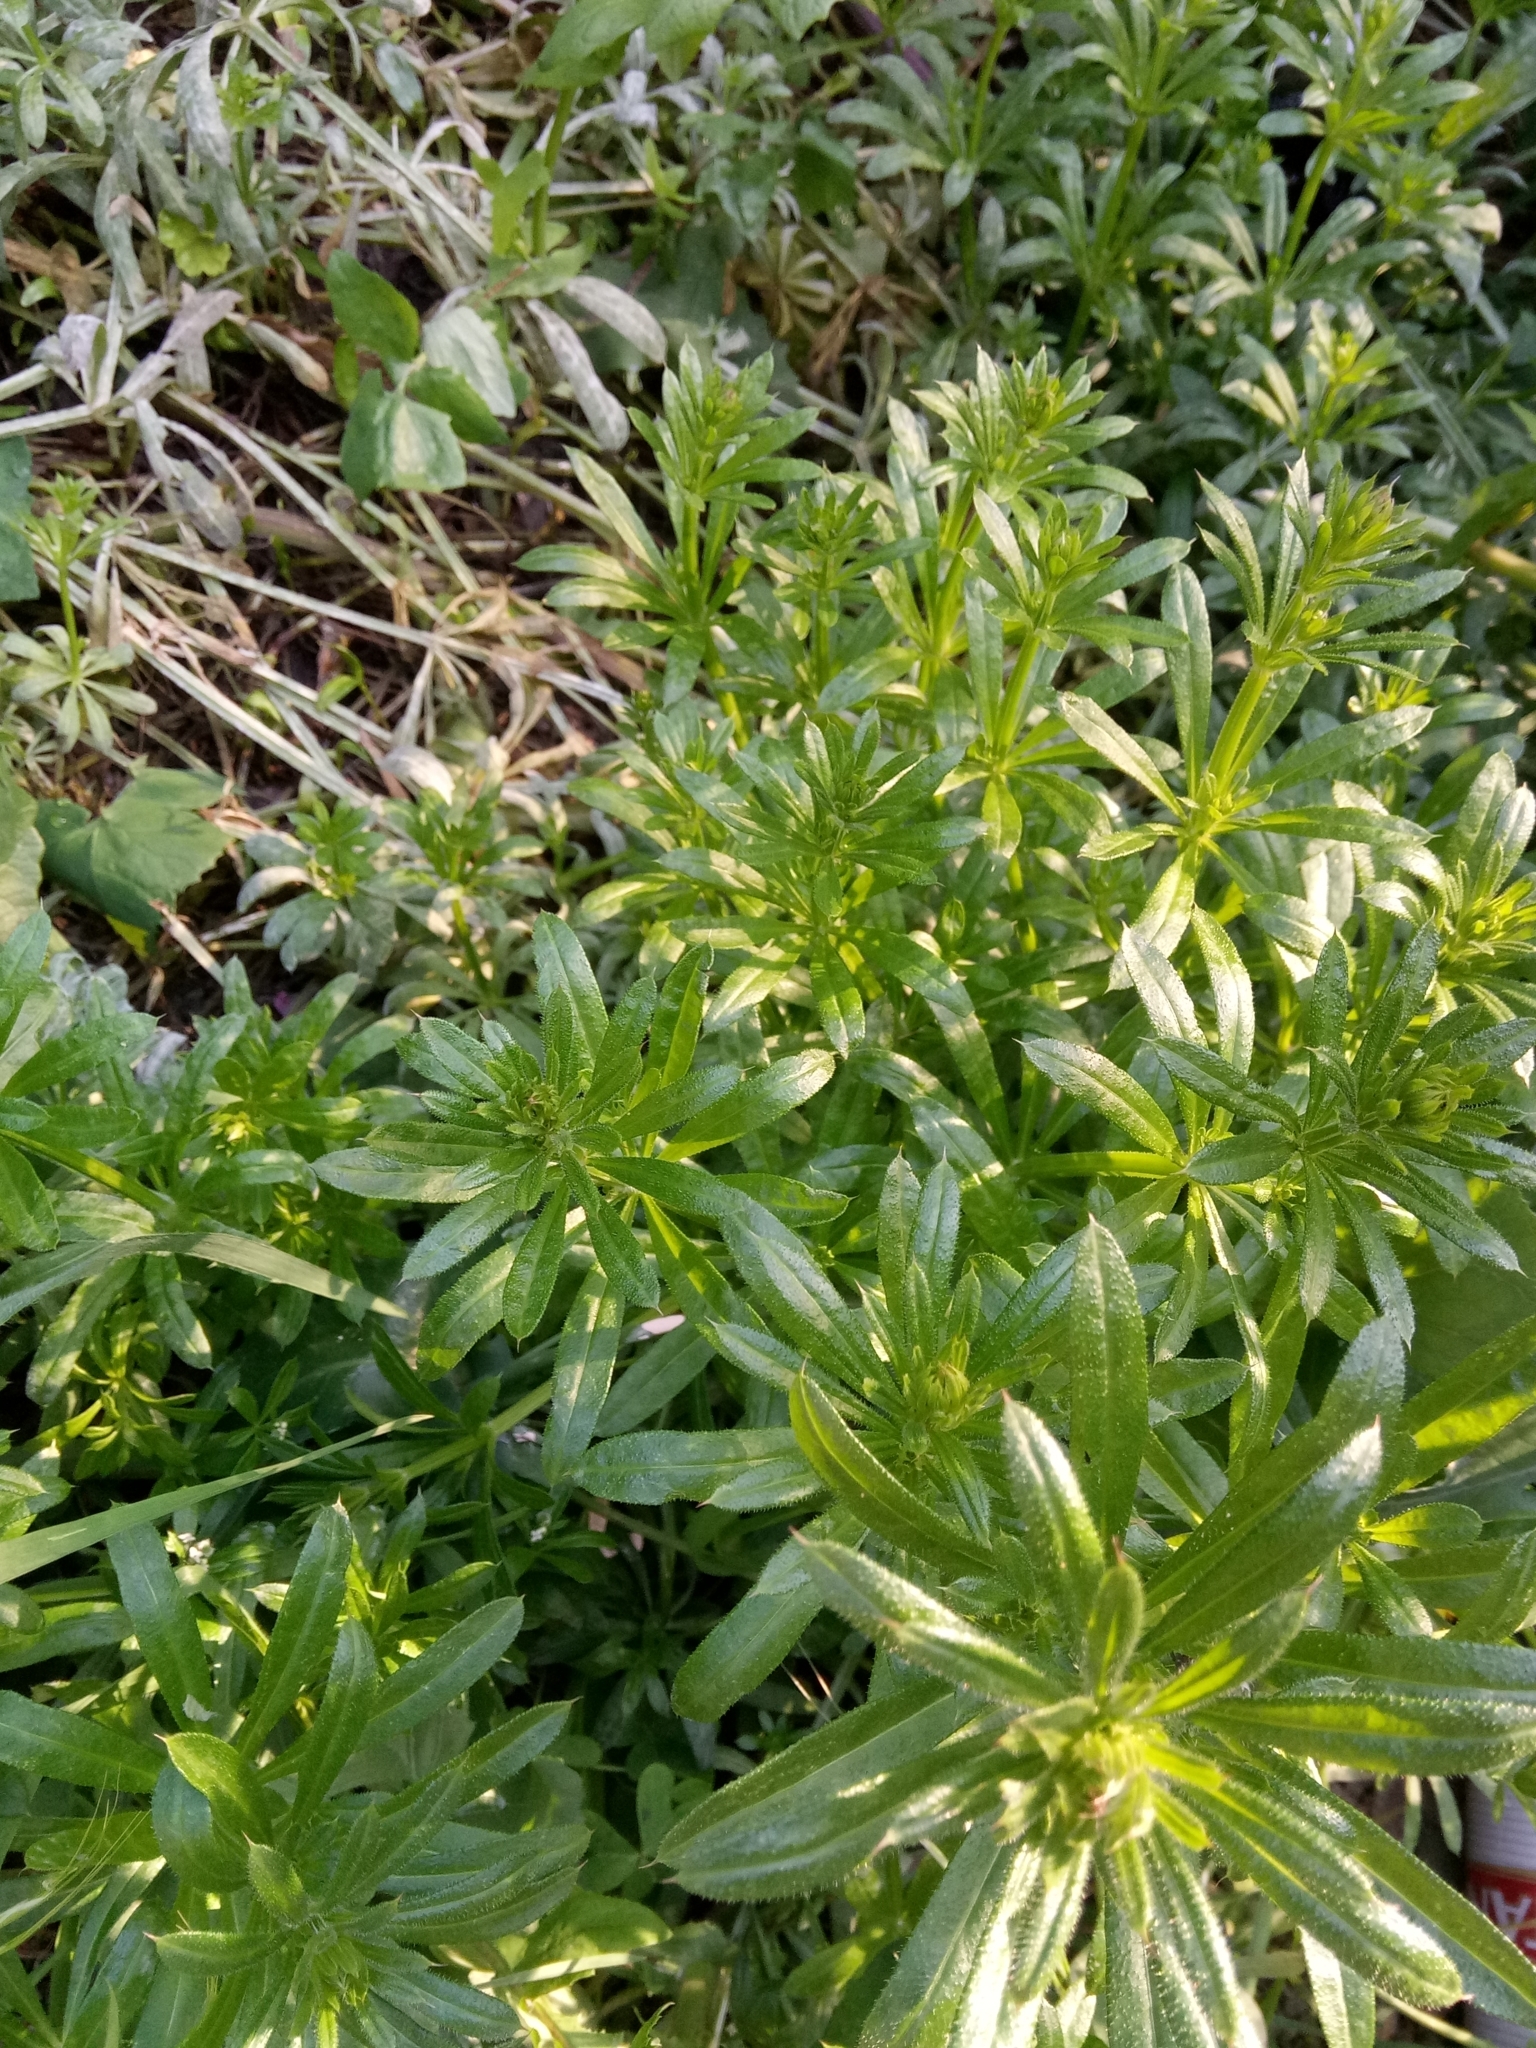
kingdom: Plantae
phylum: Tracheophyta
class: Magnoliopsida
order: Gentianales
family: Rubiaceae
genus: Galium
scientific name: Galium aparine
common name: Cleavers
